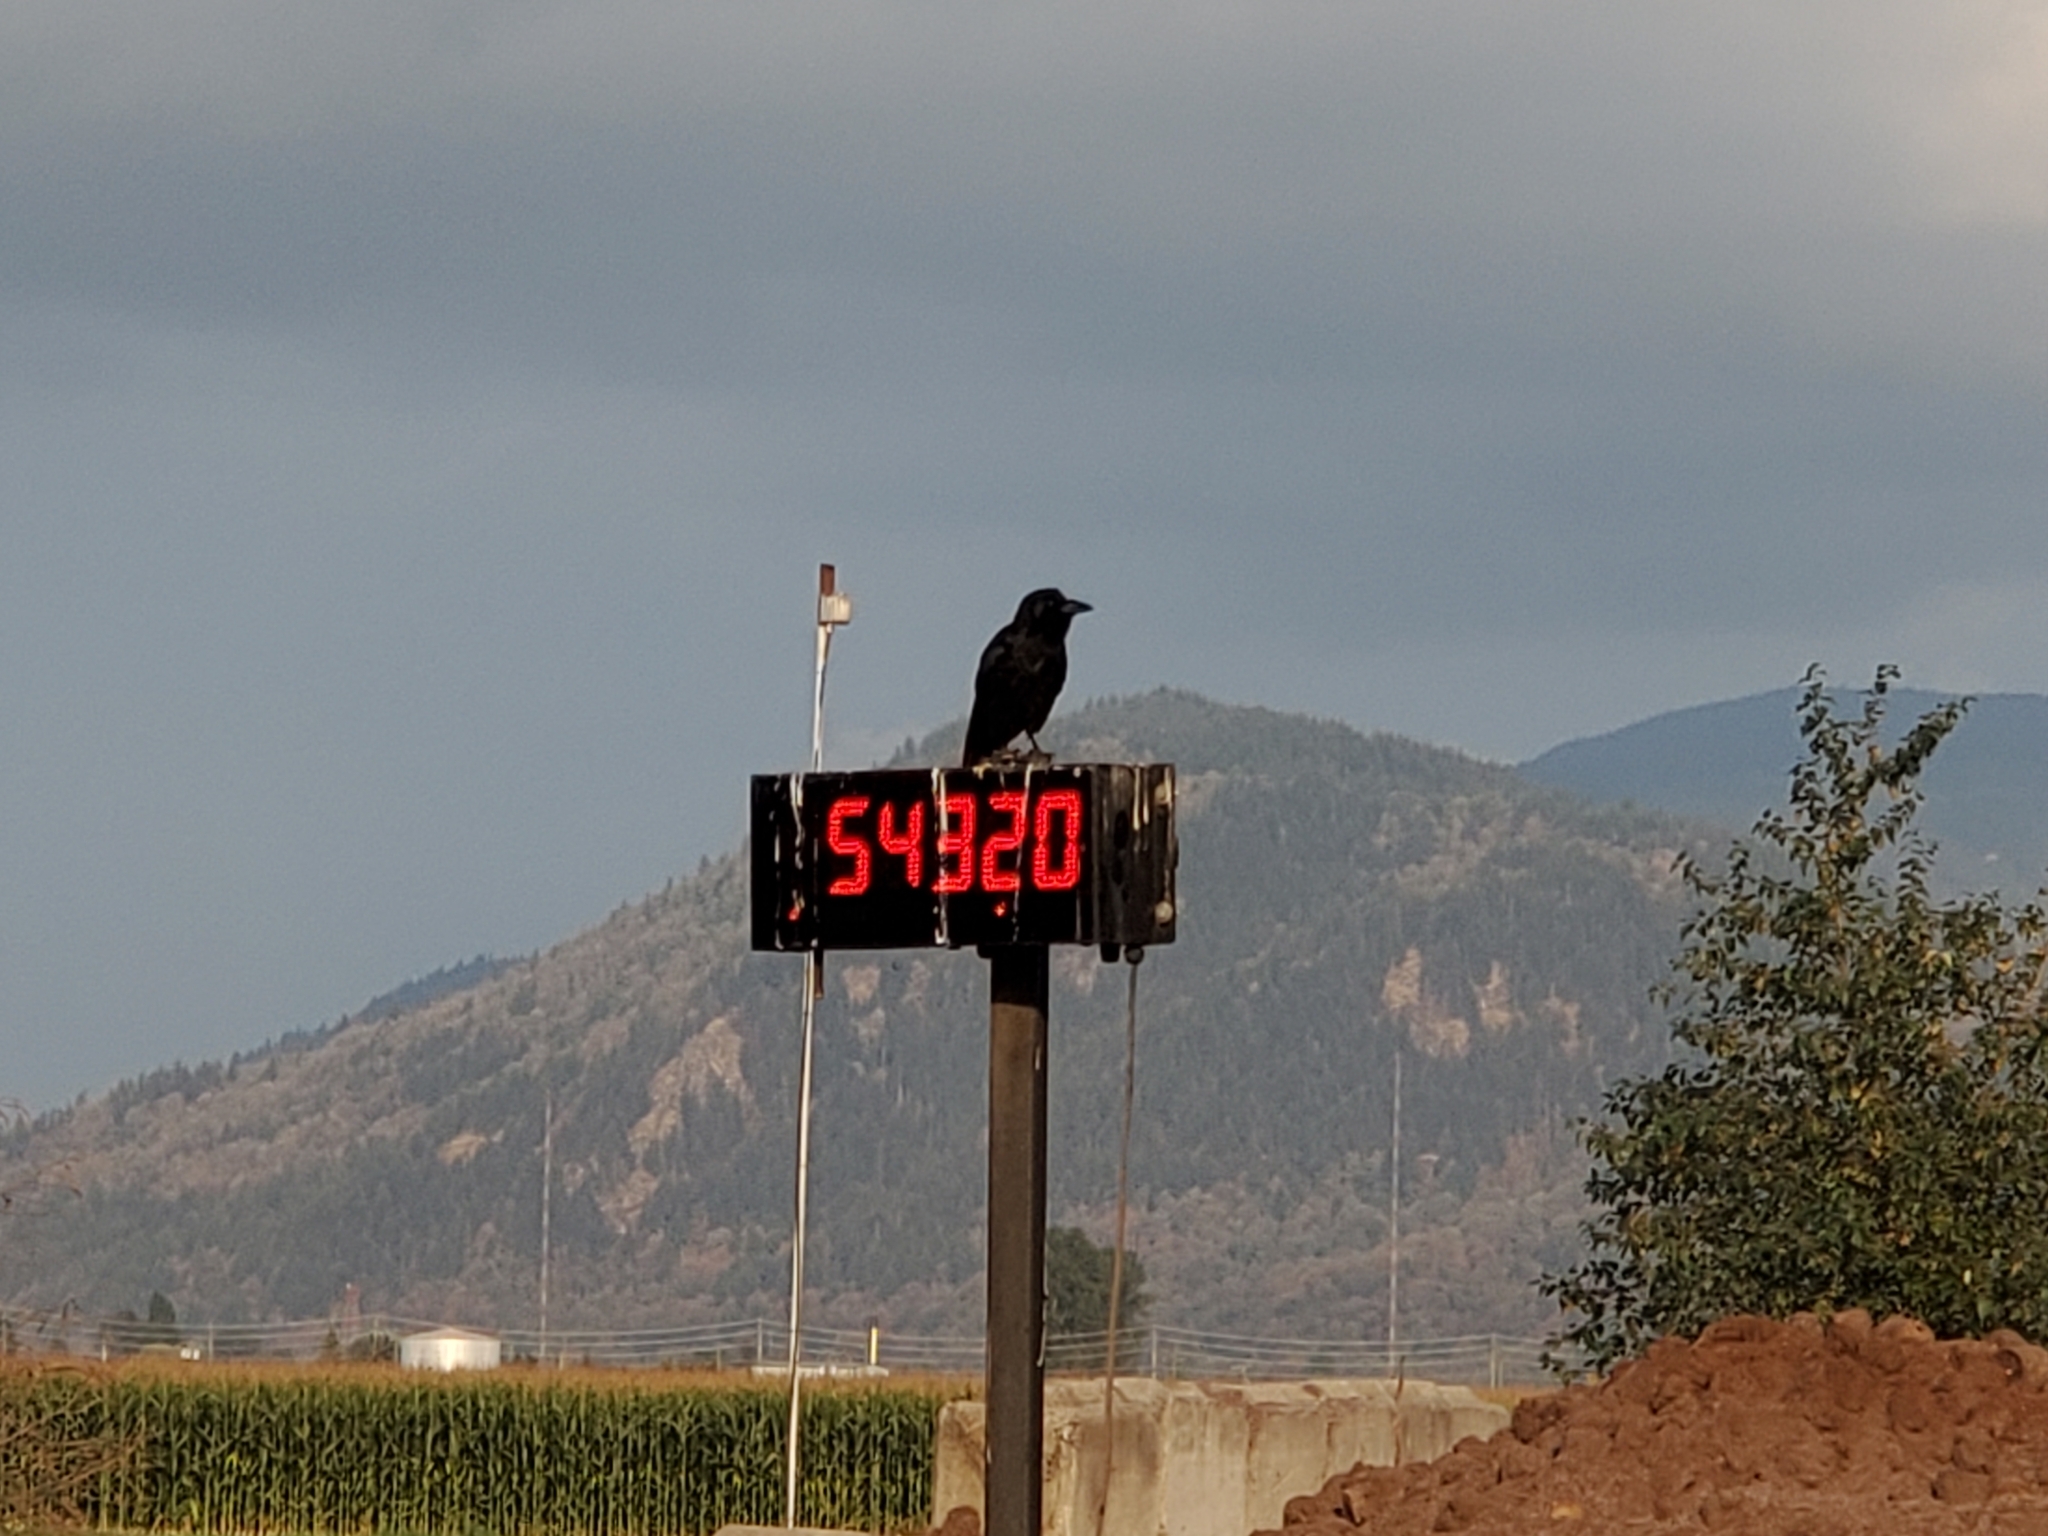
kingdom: Animalia
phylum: Chordata
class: Aves
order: Passeriformes
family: Corvidae
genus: Corvus
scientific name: Corvus brachyrhynchos
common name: American crow
